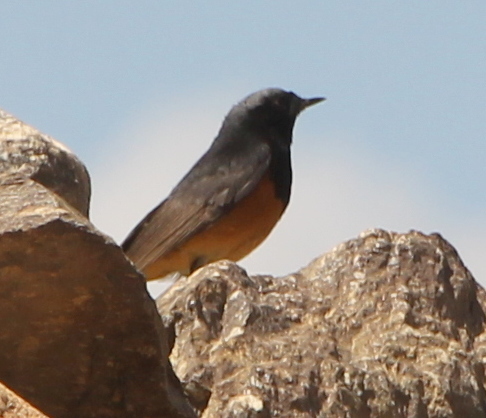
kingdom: Animalia
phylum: Chordata
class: Aves
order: Passeriformes
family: Muscicapidae
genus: Phoenicurus
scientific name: Phoenicurus ochruros
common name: Black redstart
